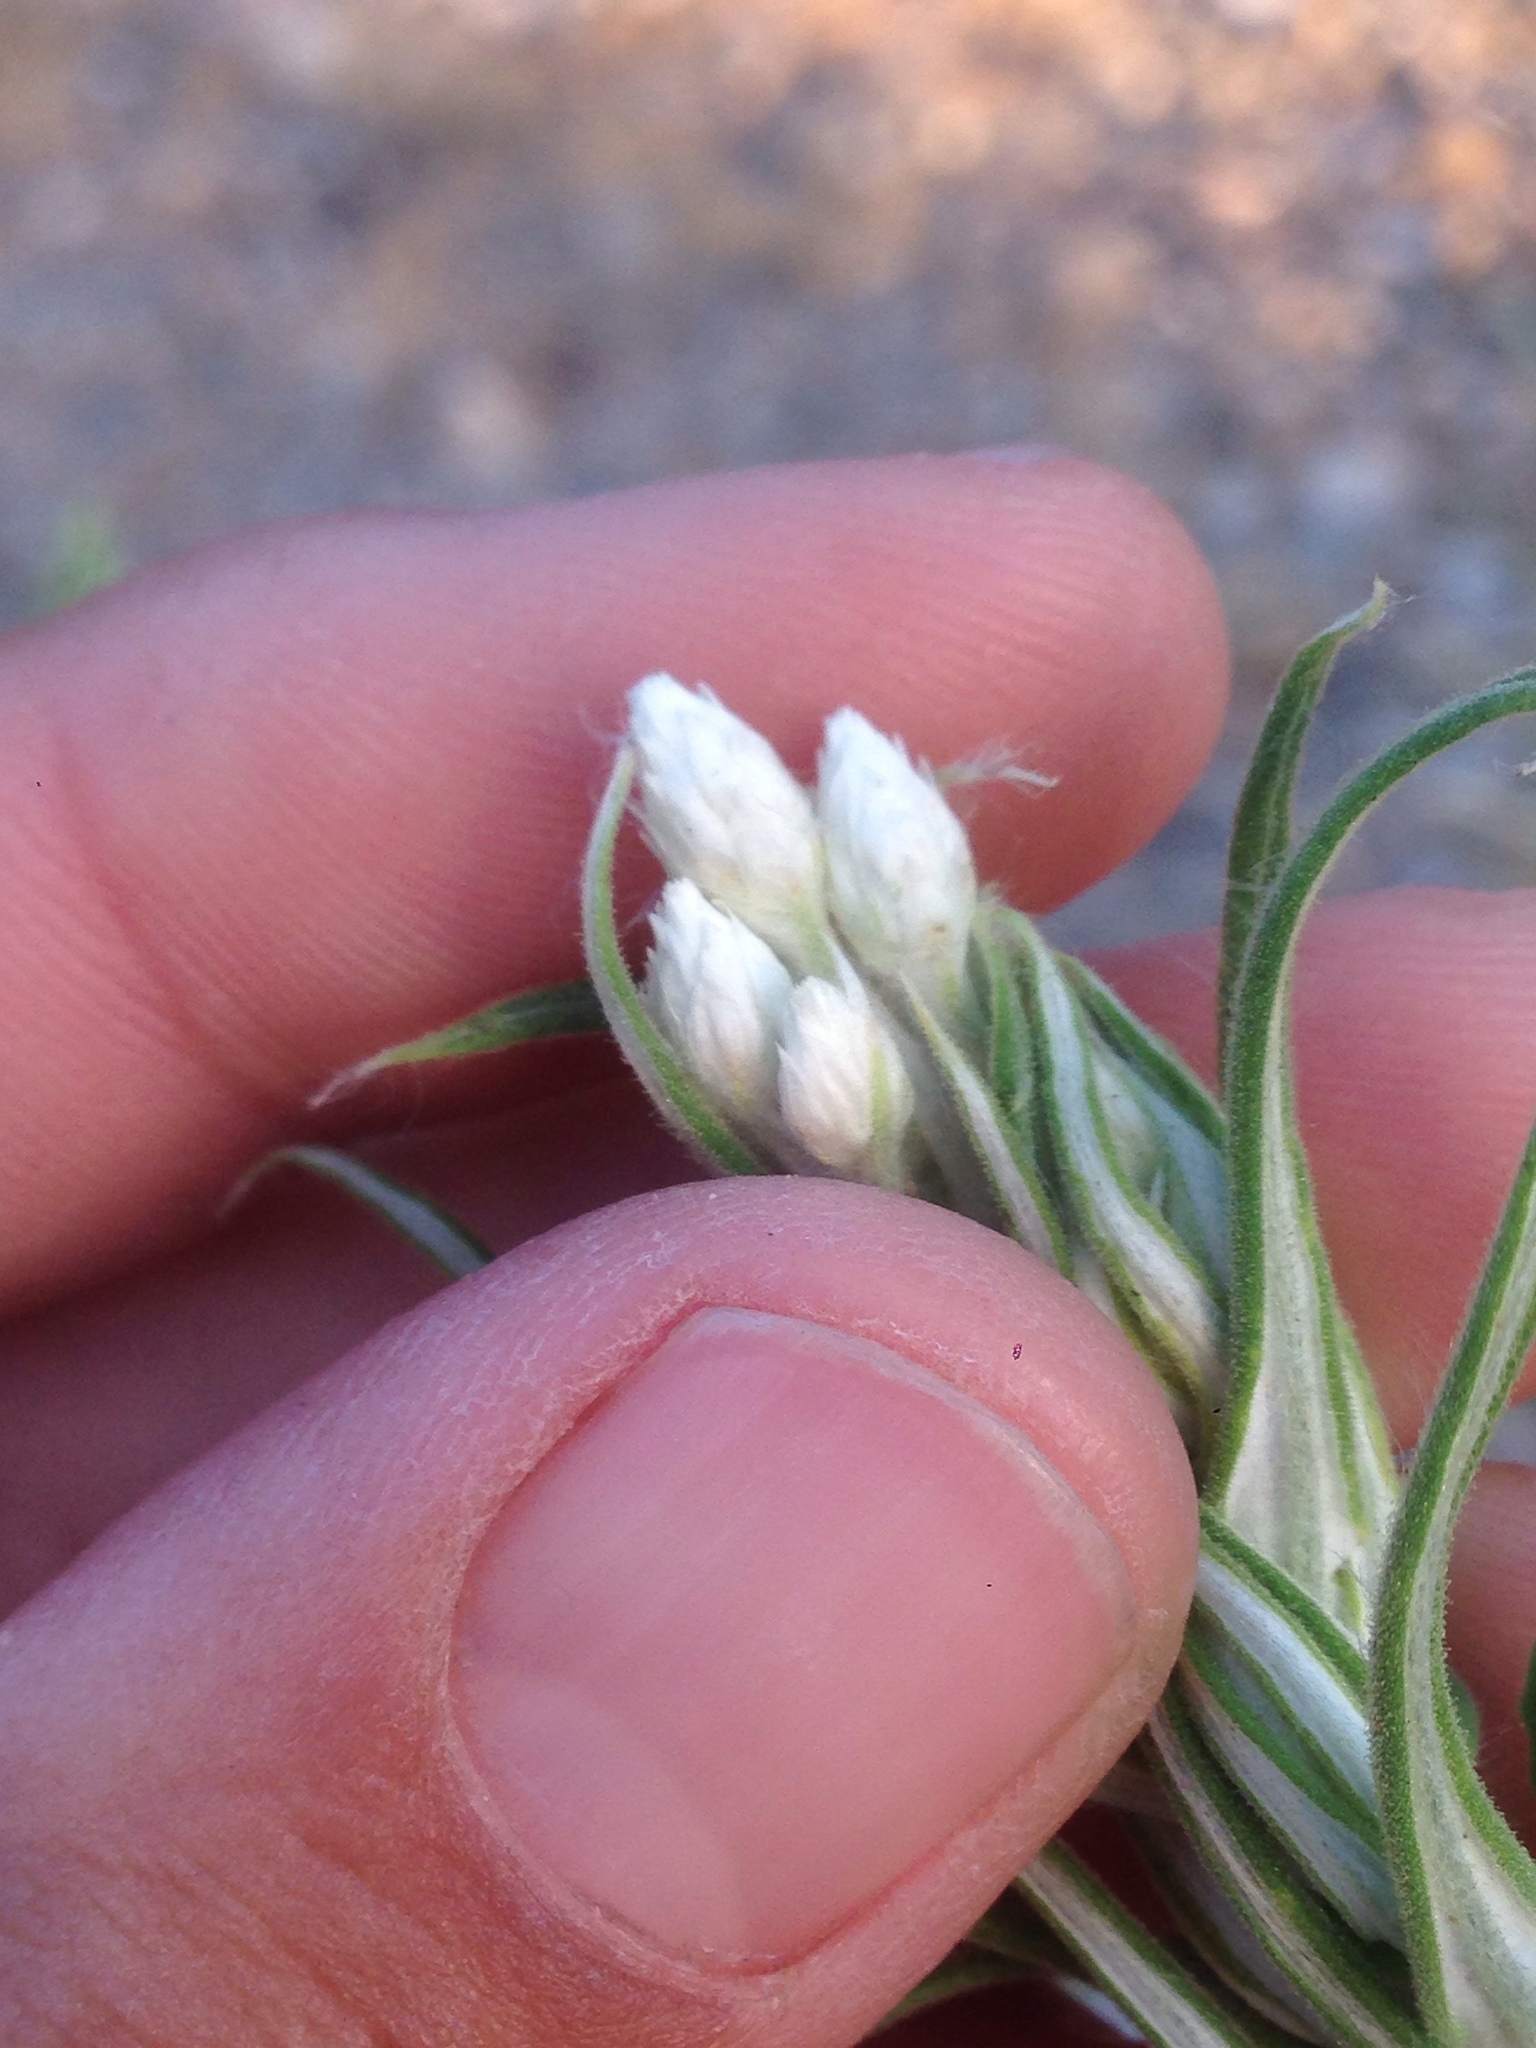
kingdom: Plantae
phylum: Tracheophyta
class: Magnoliopsida
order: Asterales
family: Asteraceae
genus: Pseudognaphalium
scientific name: Pseudognaphalium leucocephalum
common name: White cudweed
